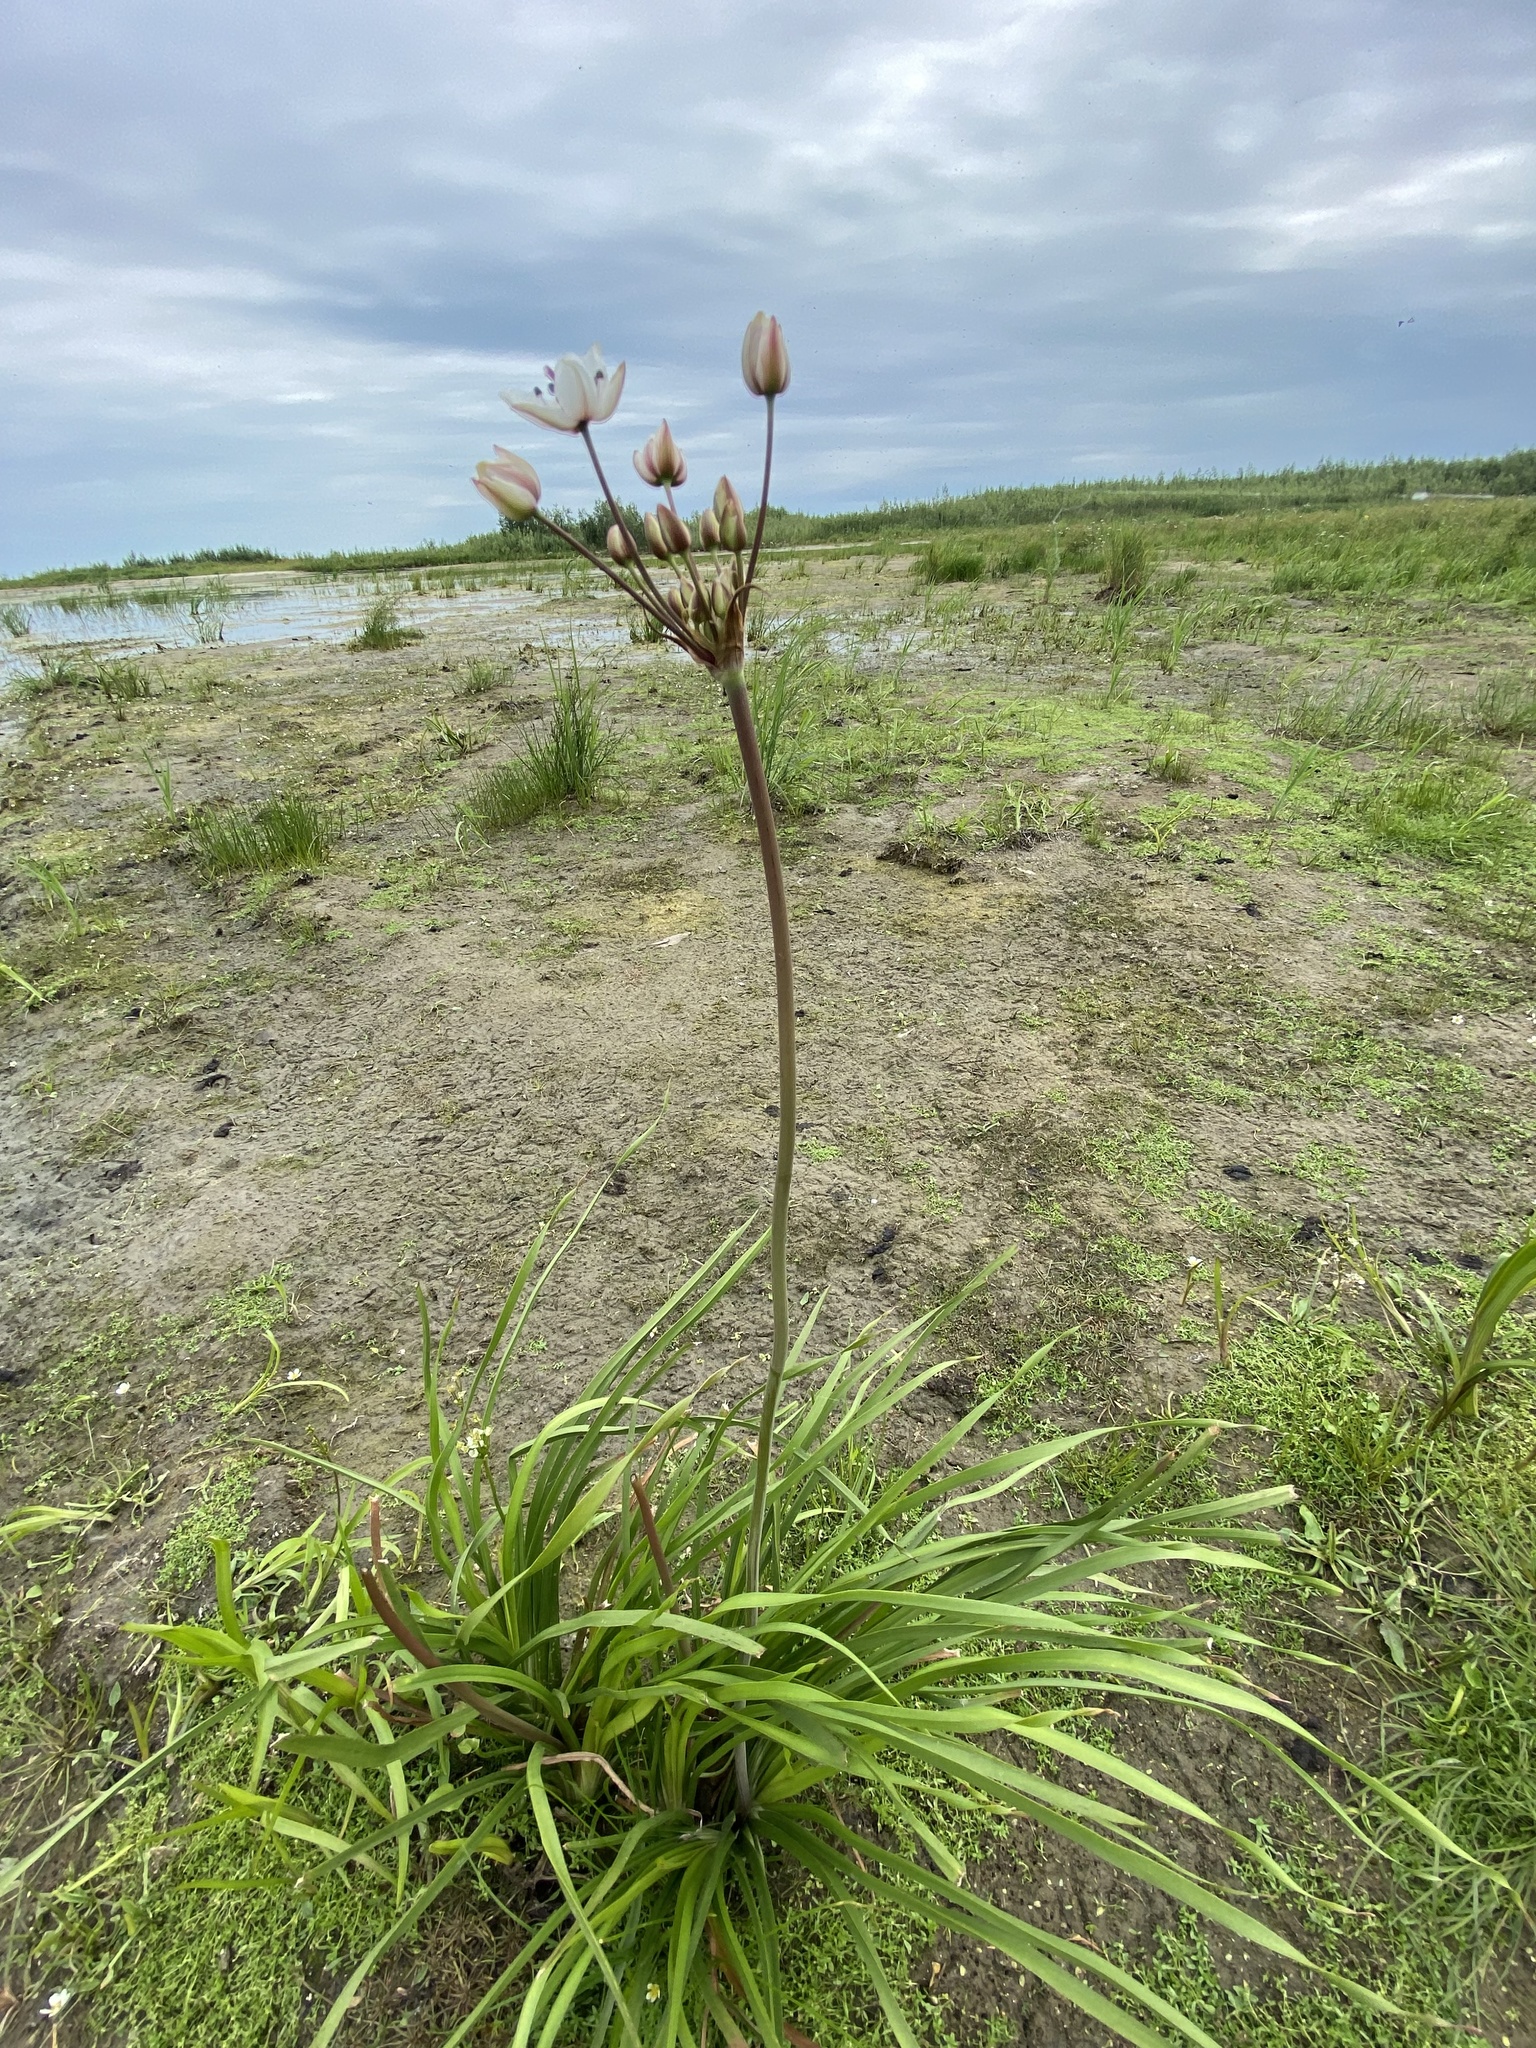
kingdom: Plantae
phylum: Tracheophyta
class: Liliopsida
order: Alismatales
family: Butomaceae
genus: Butomus
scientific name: Butomus umbellatus
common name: Flowering-rush
